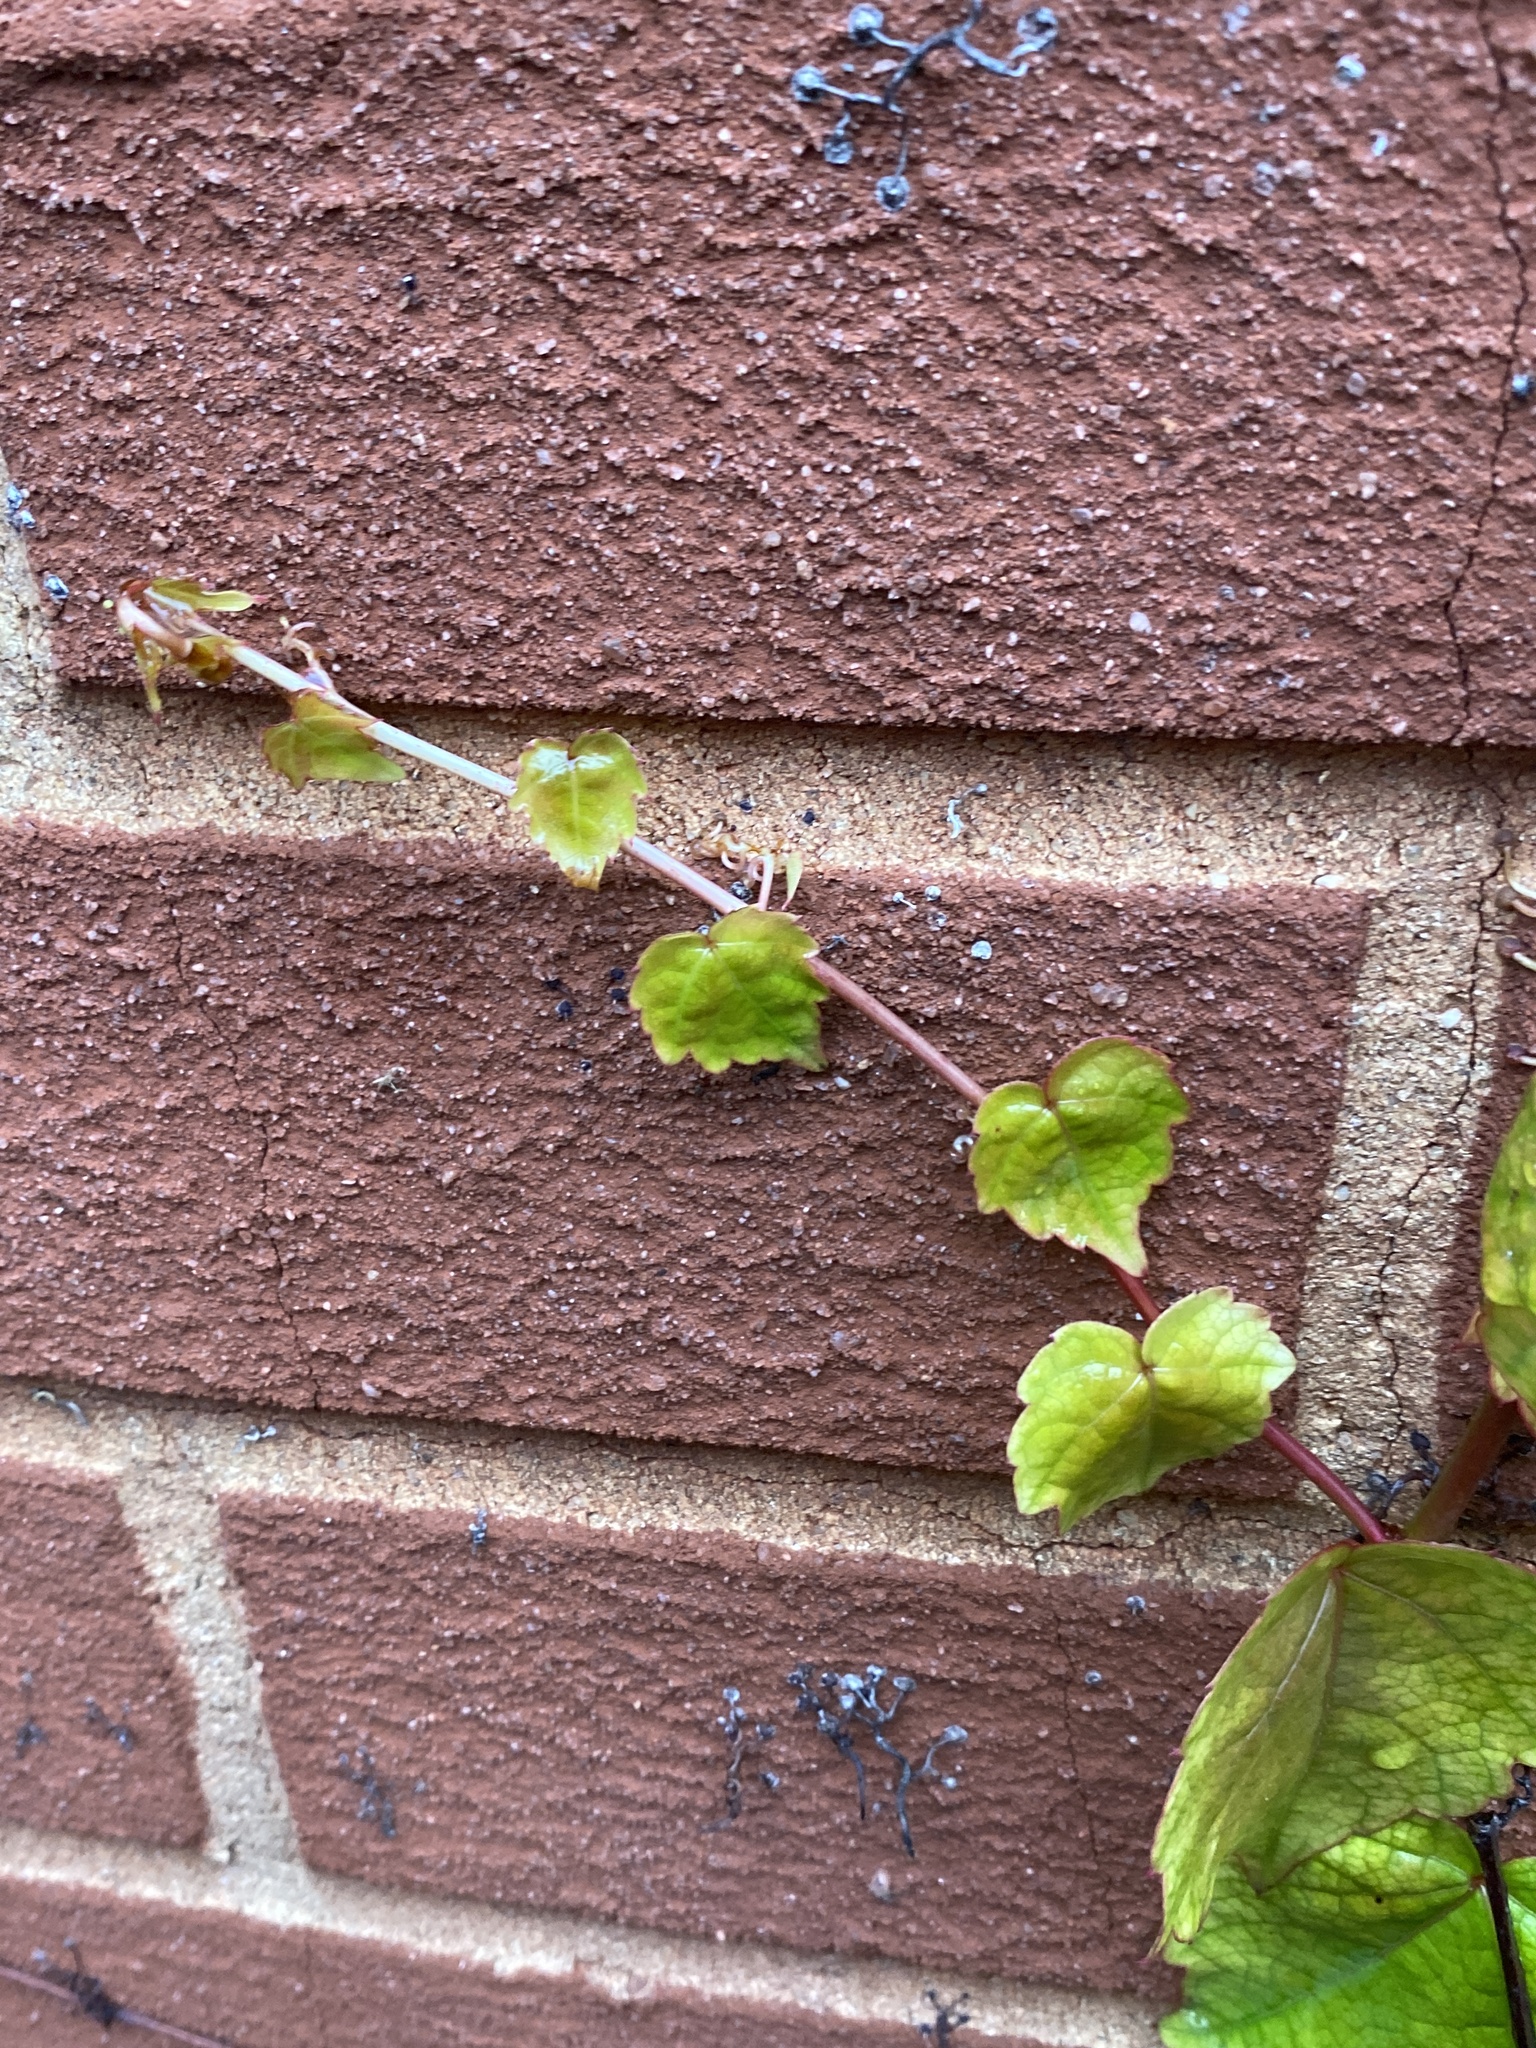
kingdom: Plantae
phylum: Tracheophyta
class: Magnoliopsida
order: Vitales
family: Vitaceae
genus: Parthenocissus
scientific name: Parthenocissus tricuspidata
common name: Boston ivy
